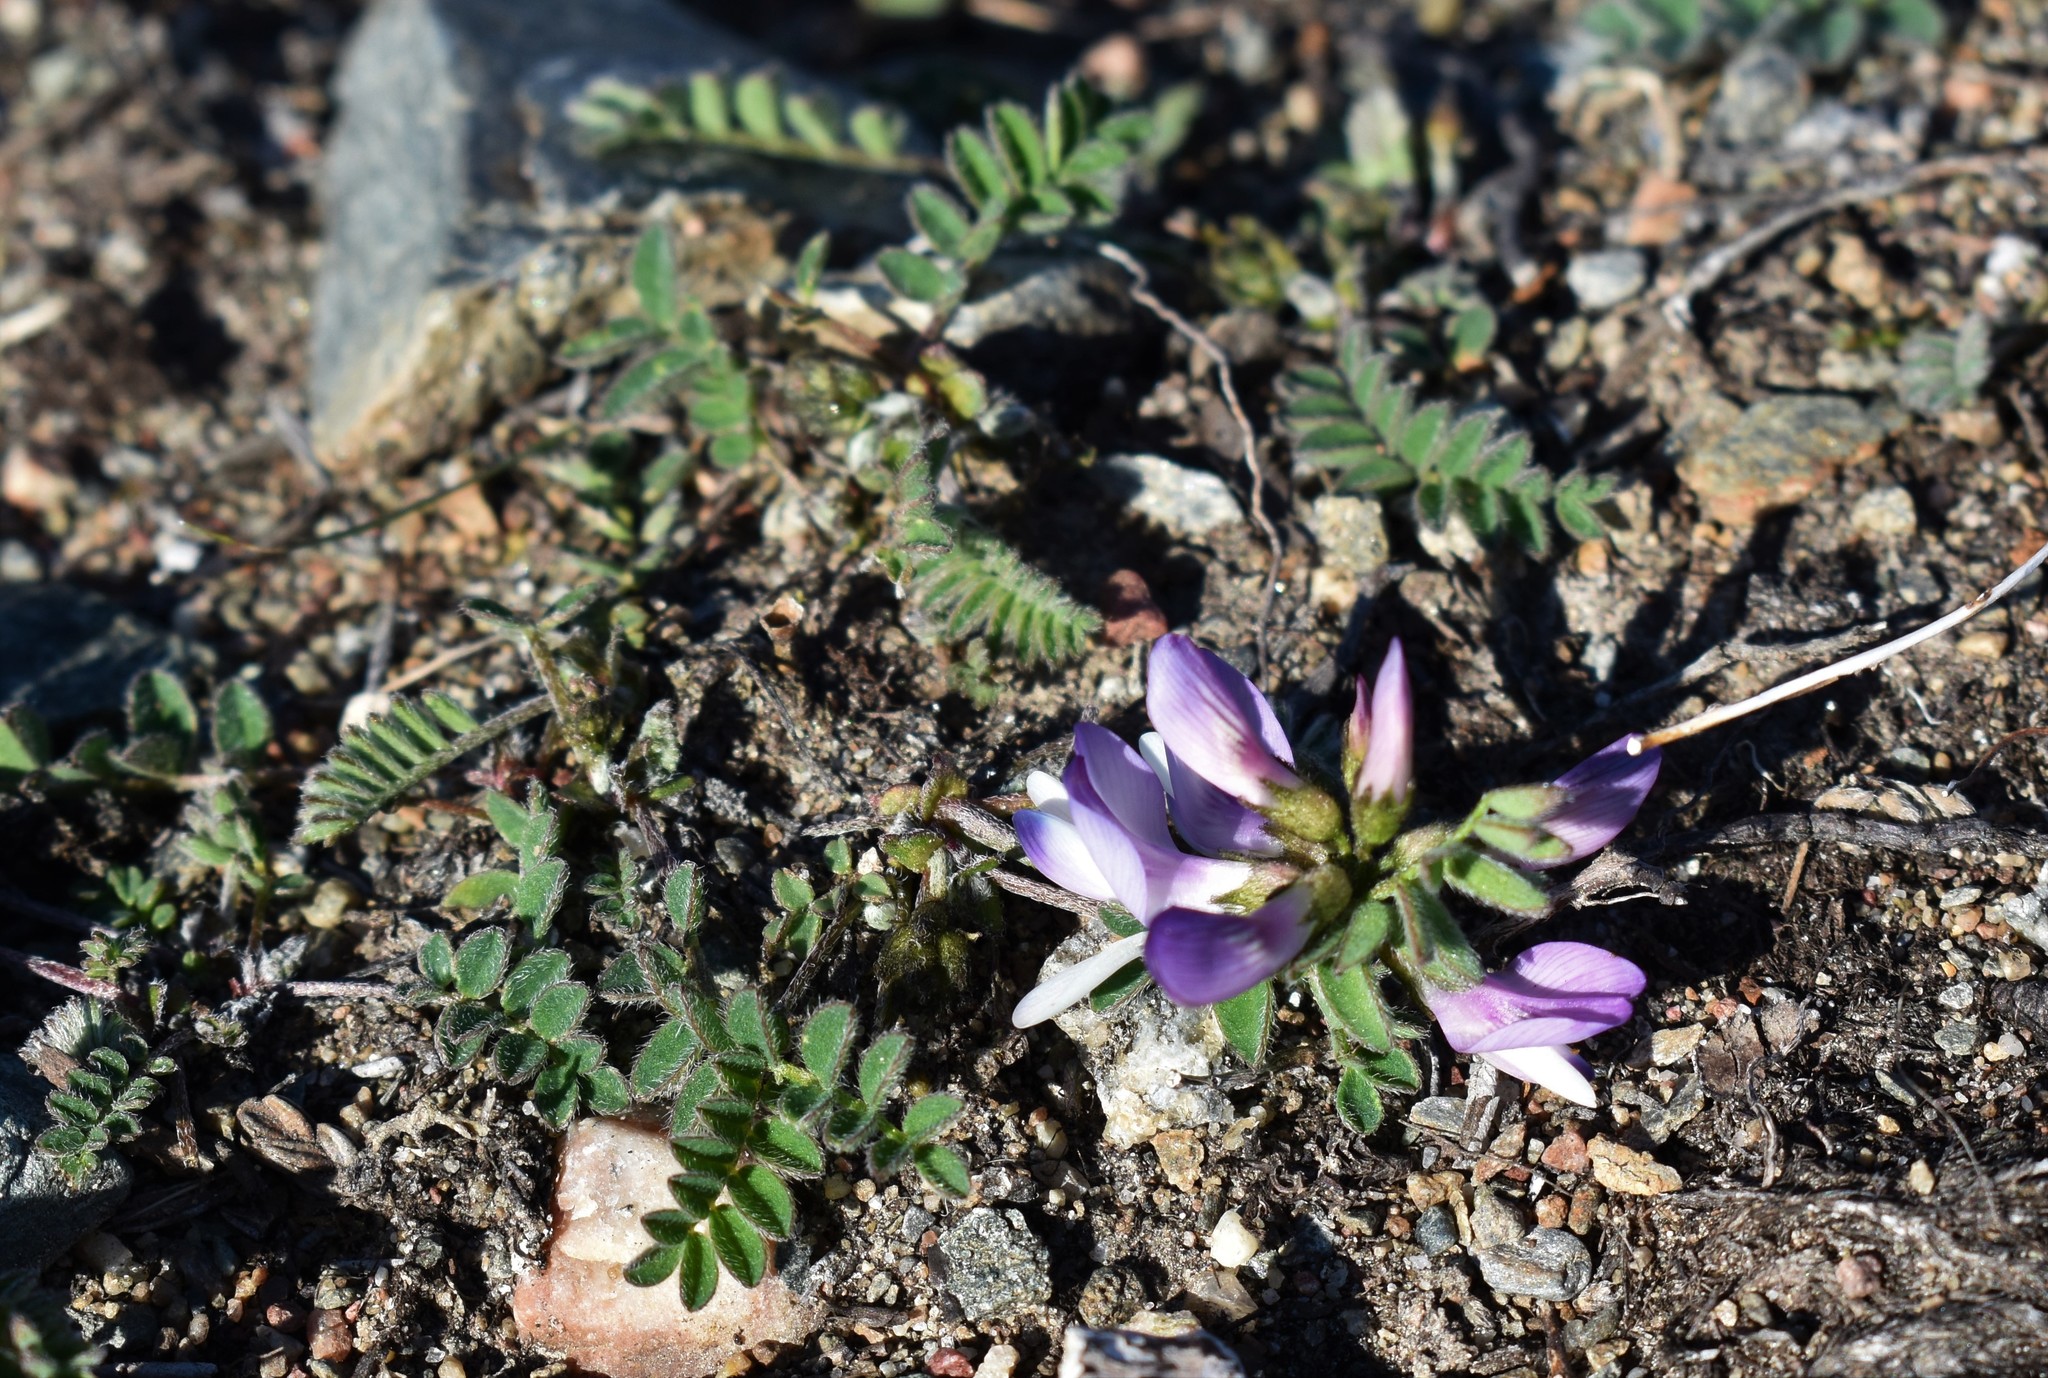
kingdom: Plantae
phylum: Tracheophyta
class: Magnoliopsida
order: Fabales
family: Fabaceae
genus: Astragalus
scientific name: Astragalus alpinus
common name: Alpine milk-vetch
